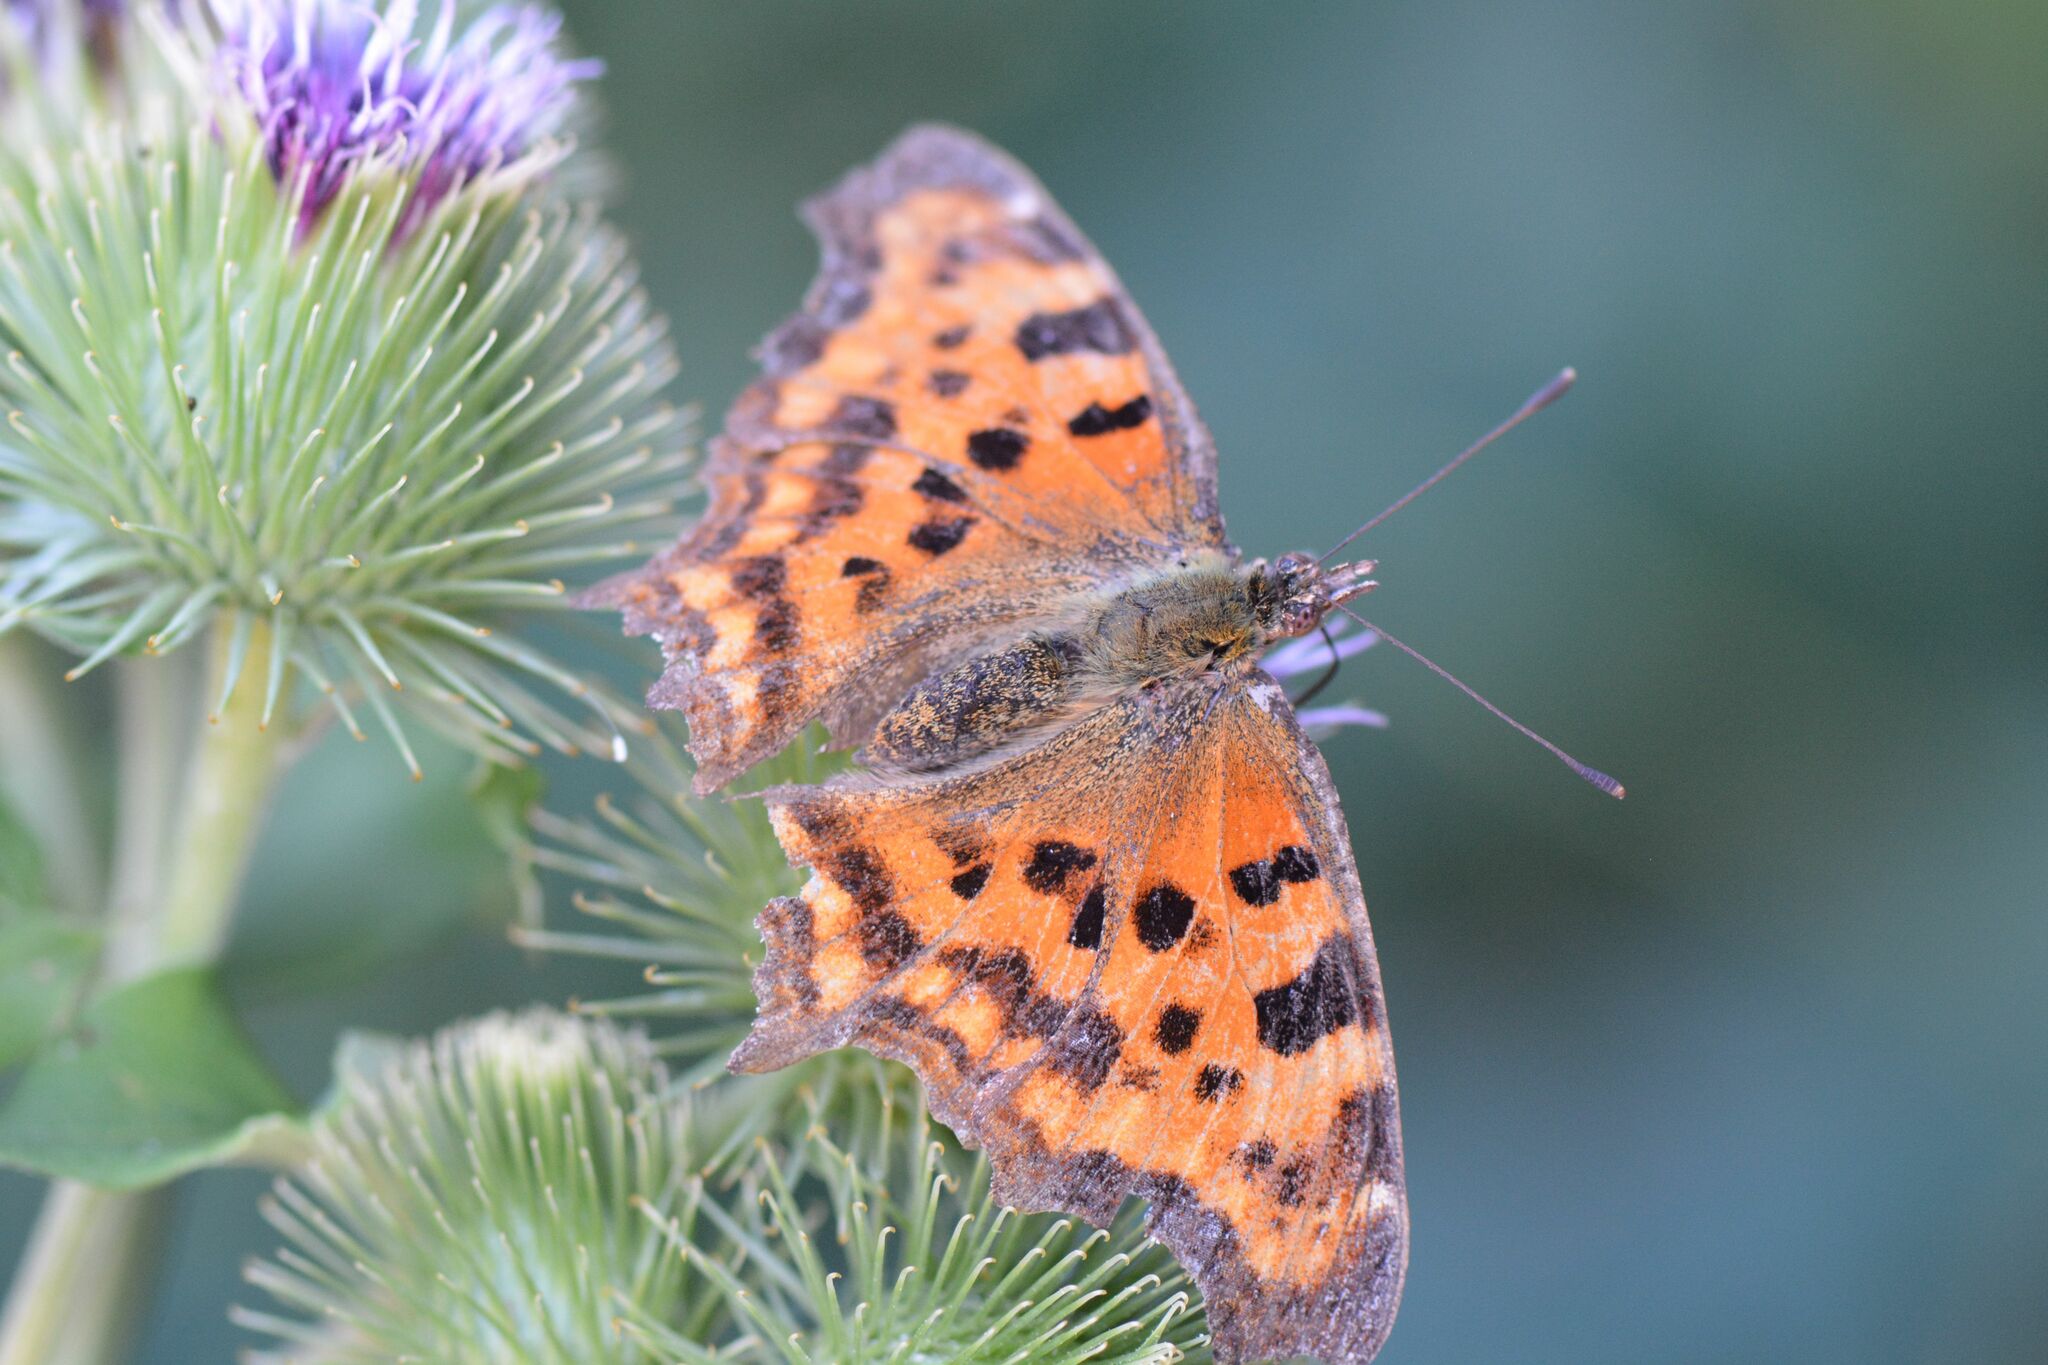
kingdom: Animalia
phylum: Arthropoda
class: Insecta
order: Lepidoptera
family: Nymphalidae
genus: Polygonia
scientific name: Polygonia c-album
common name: Comma
